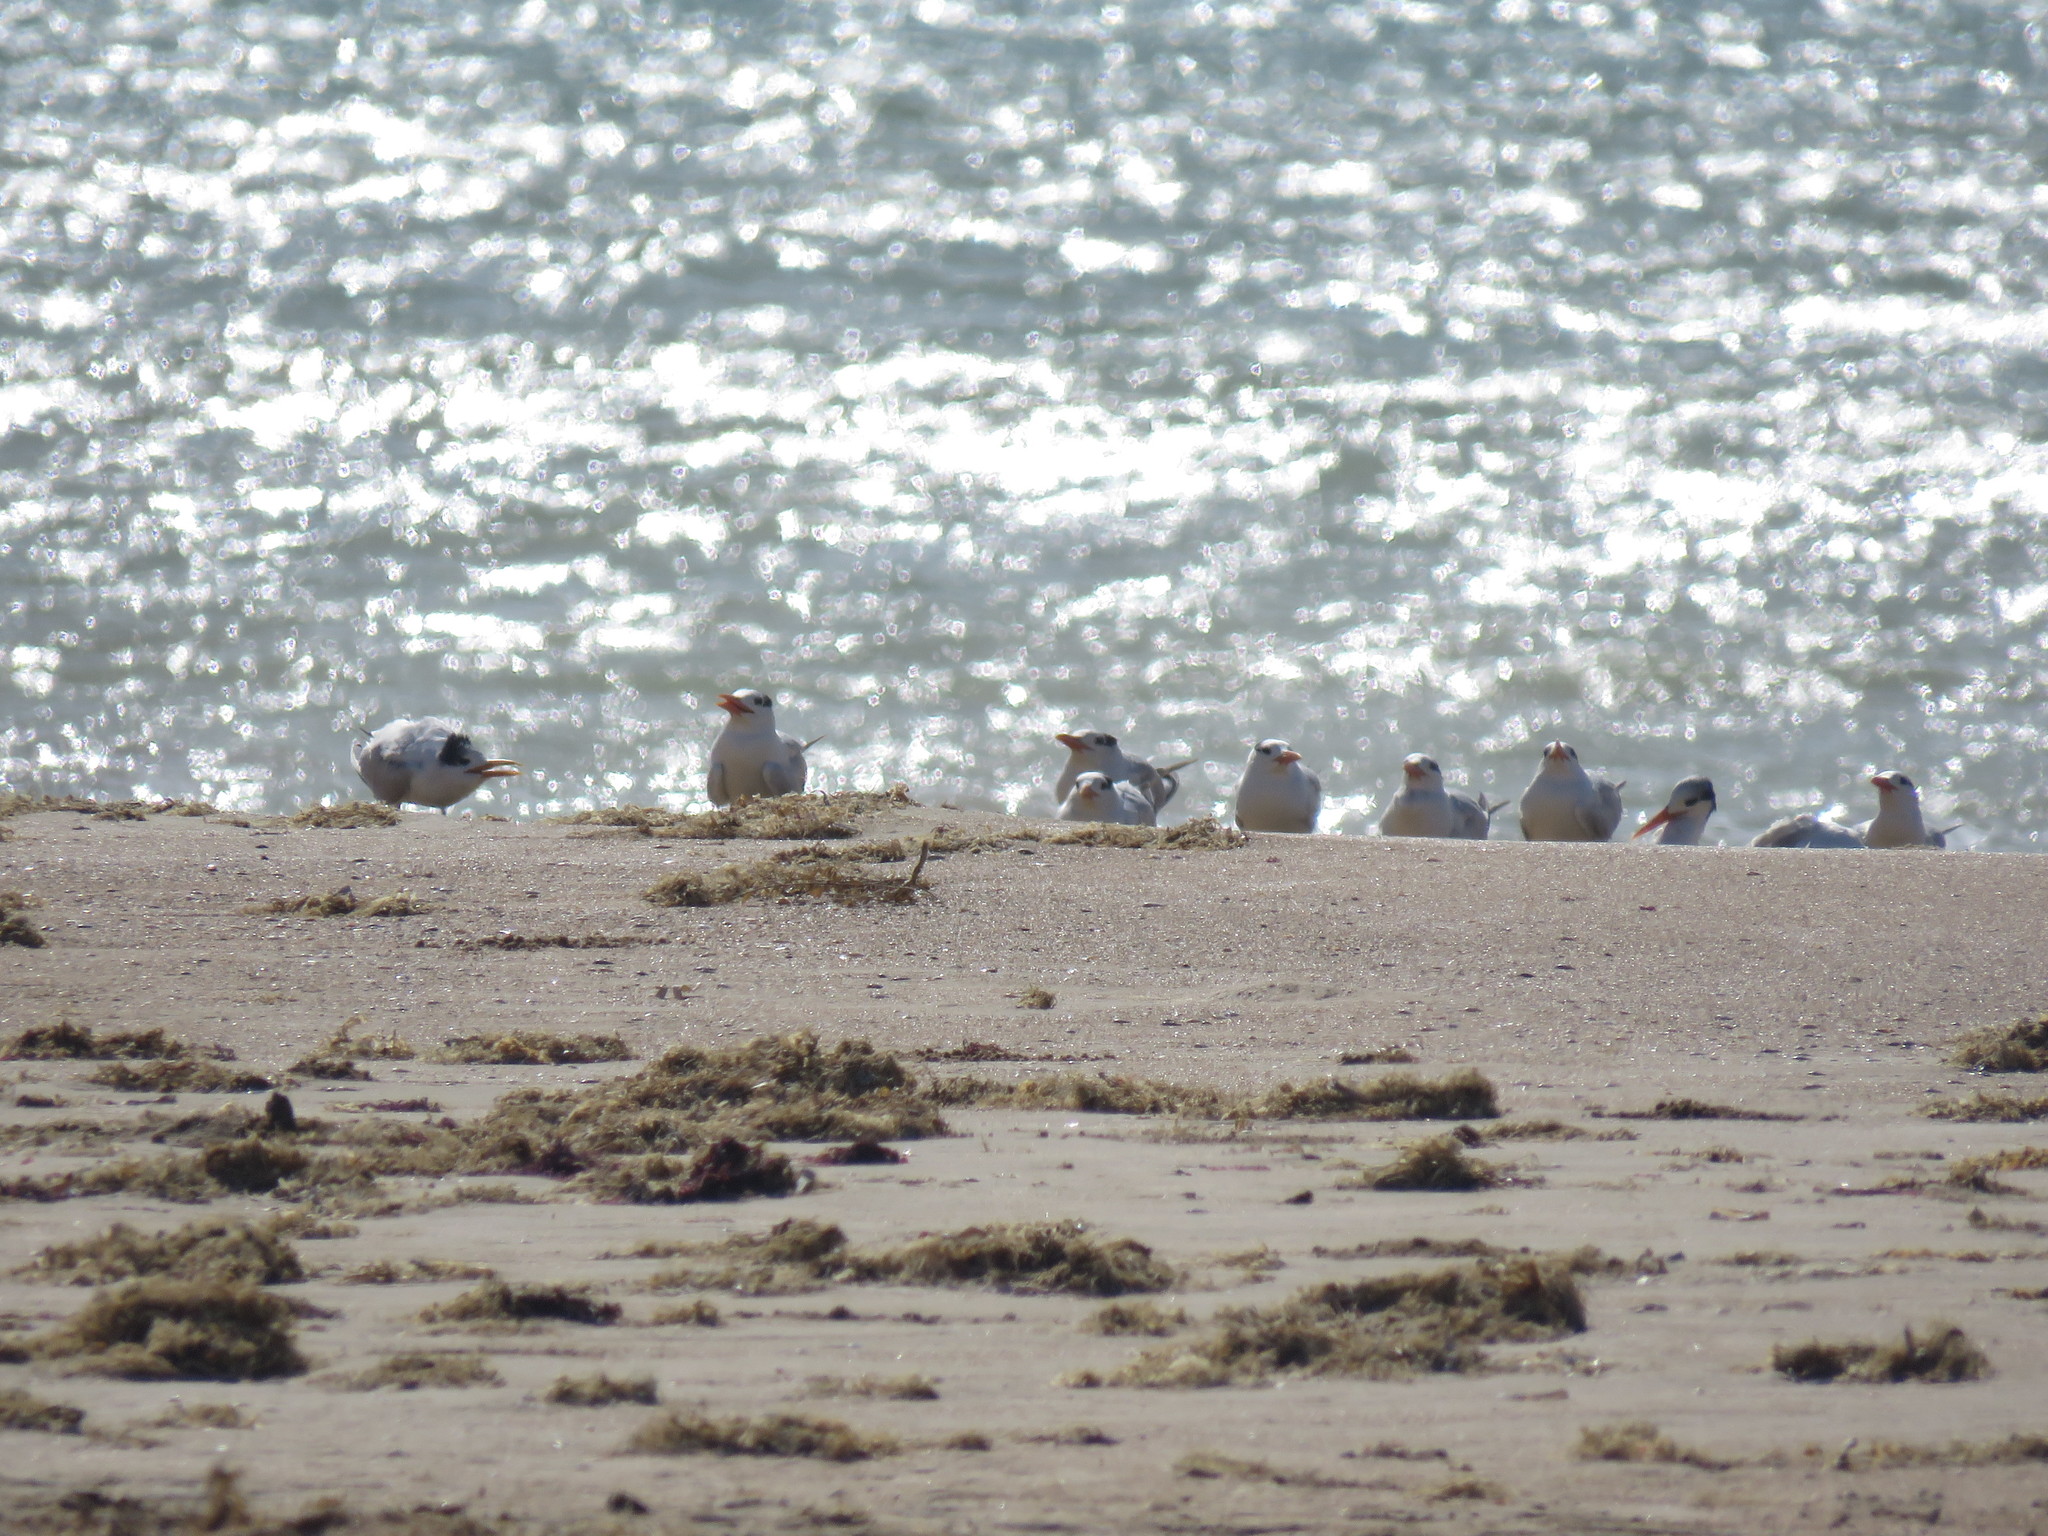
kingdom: Animalia
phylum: Chordata
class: Aves
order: Charadriiformes
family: Laridae
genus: Thalasseus
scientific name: Thalasseus maximus
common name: Royal tern
